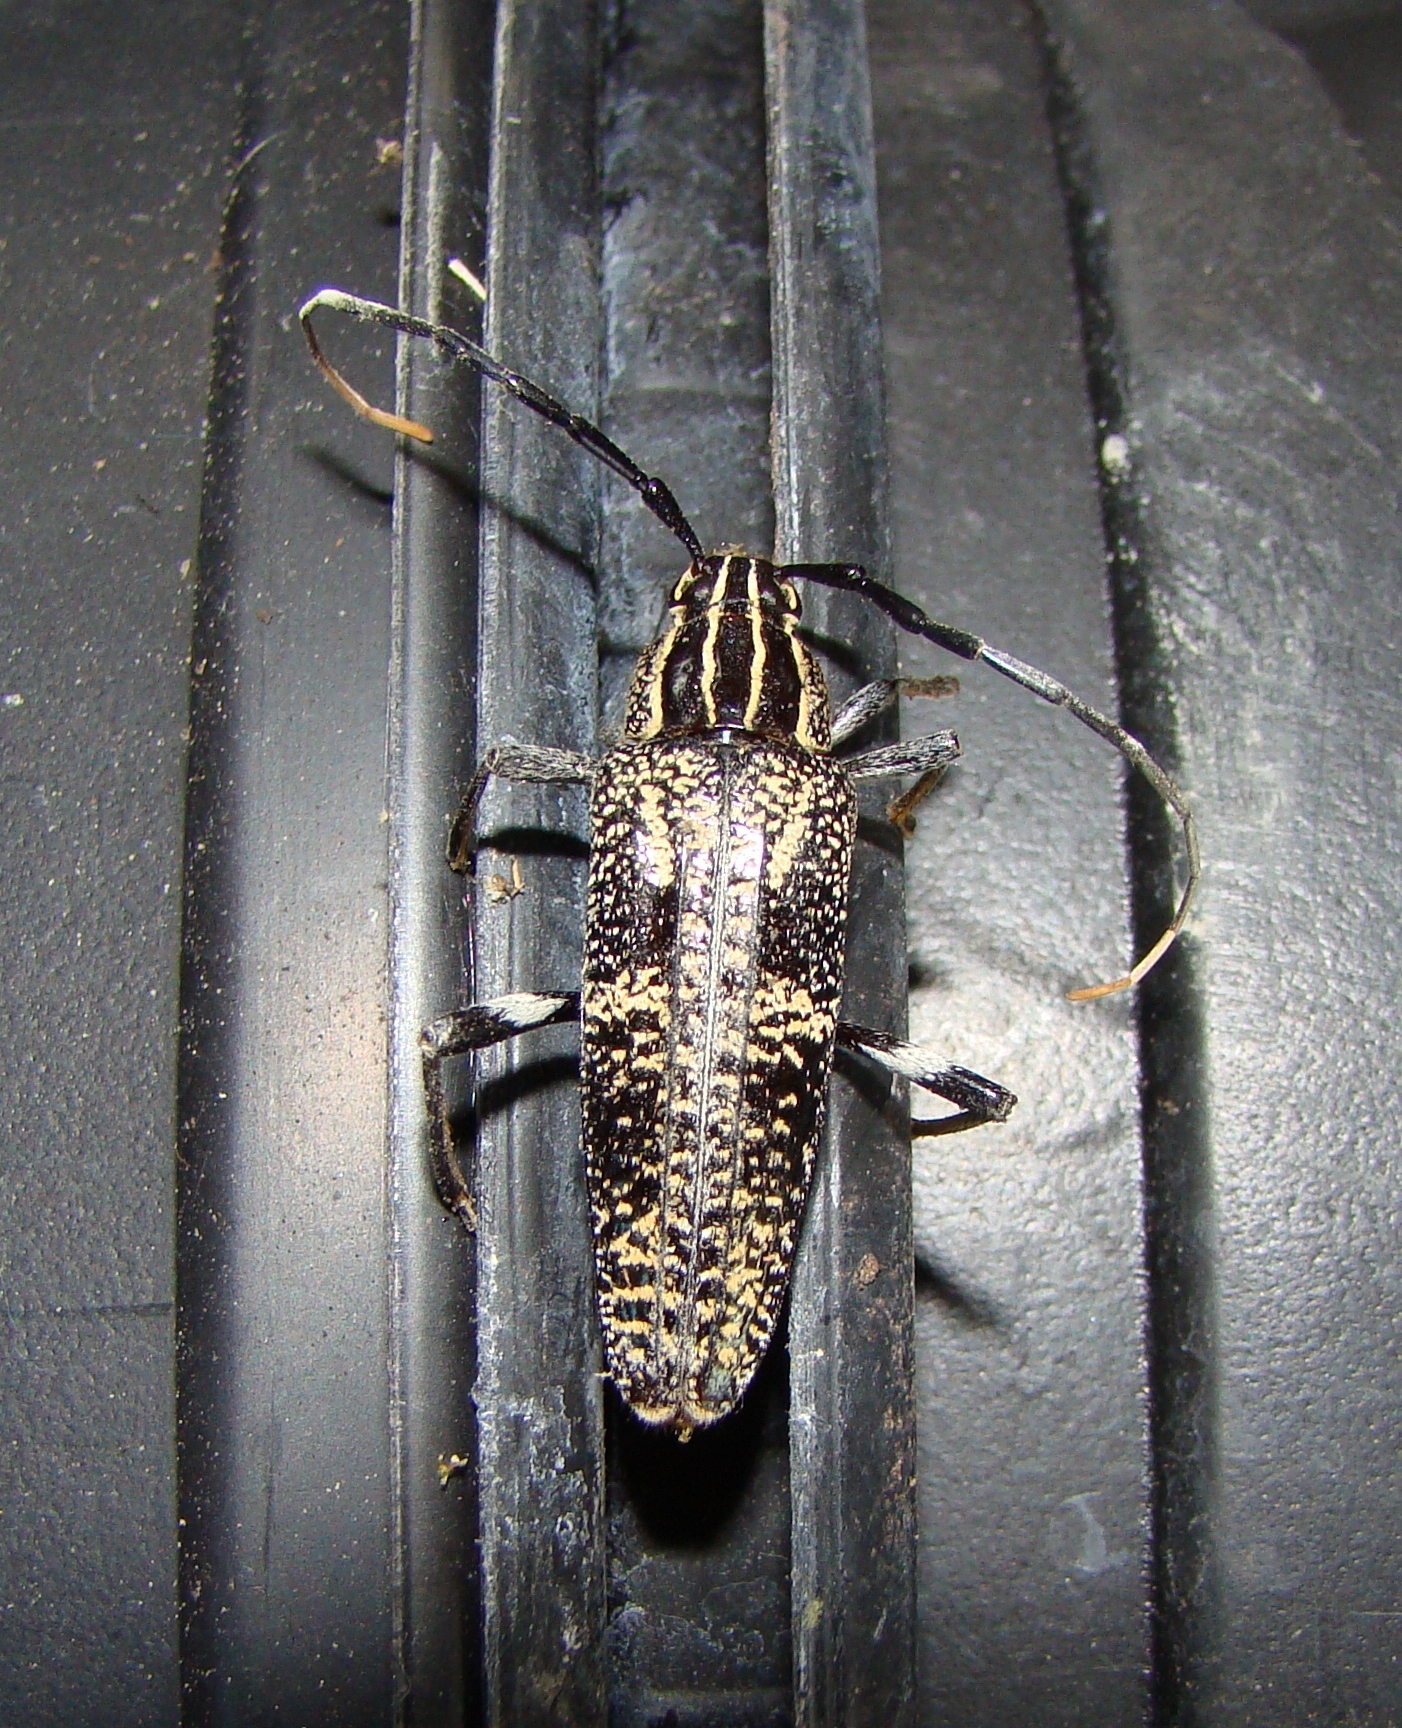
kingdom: Animalia
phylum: Arthropoda
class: Insecta
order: Coleoptera
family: Cerambycidae
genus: Coptomma
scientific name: Coptomma variegatum
